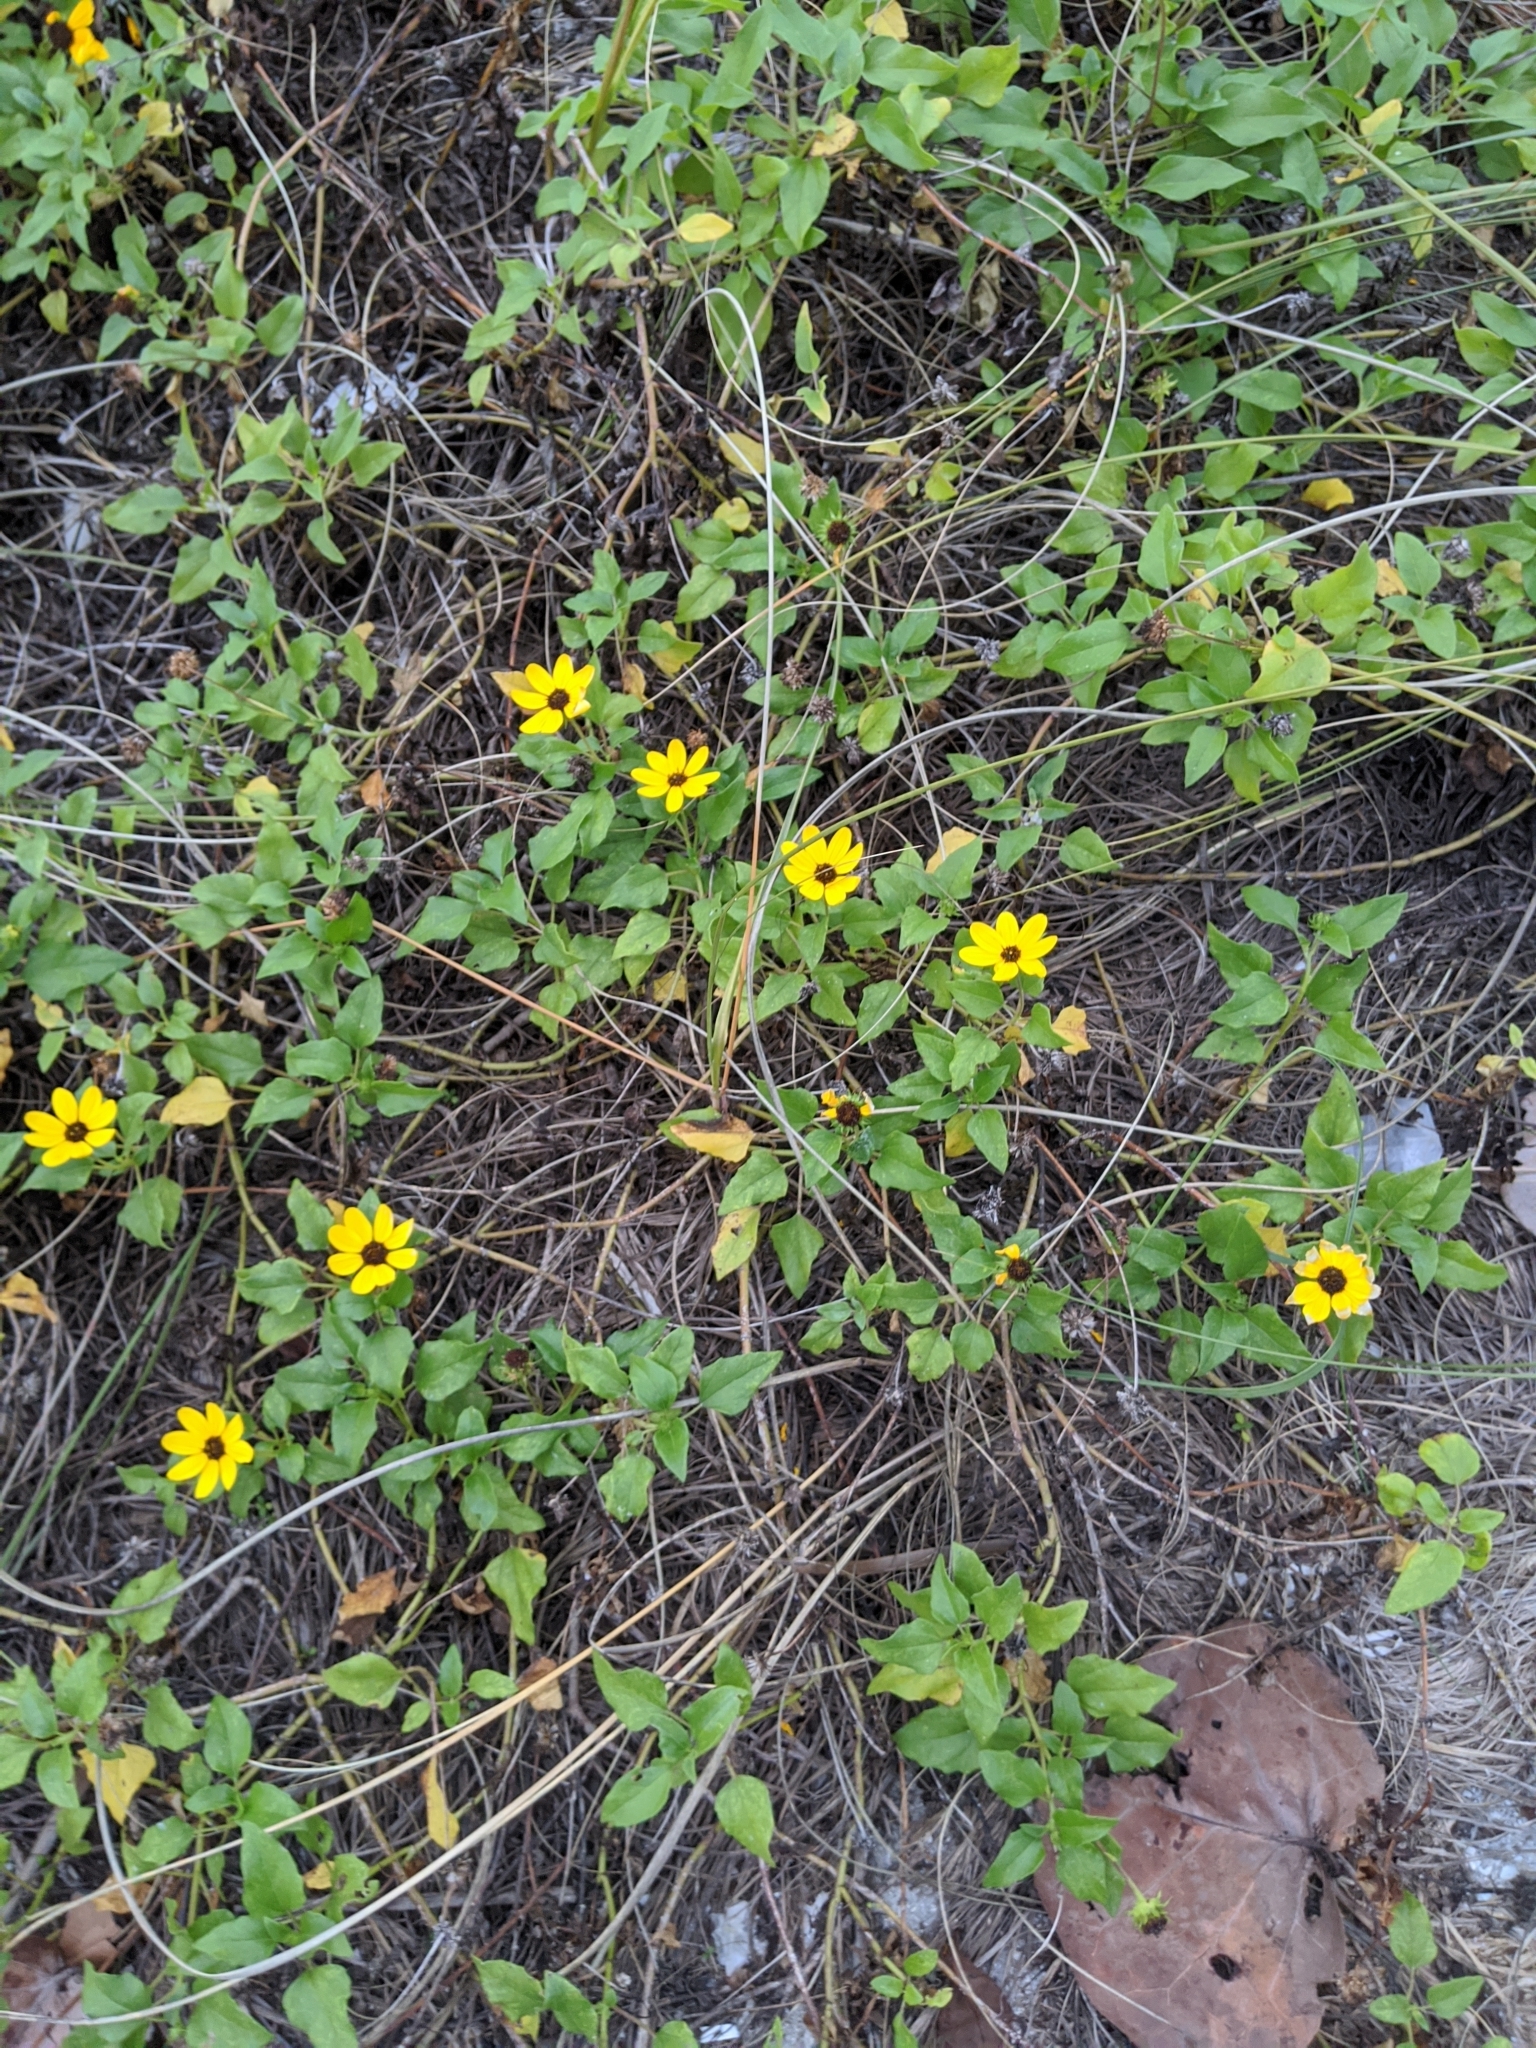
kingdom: Plantae
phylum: Tracheophyta
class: Magnoliopsida
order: Asterales
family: Asteraceae
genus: Helianthus
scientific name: Helianthus debilis
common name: Weak sunflower
